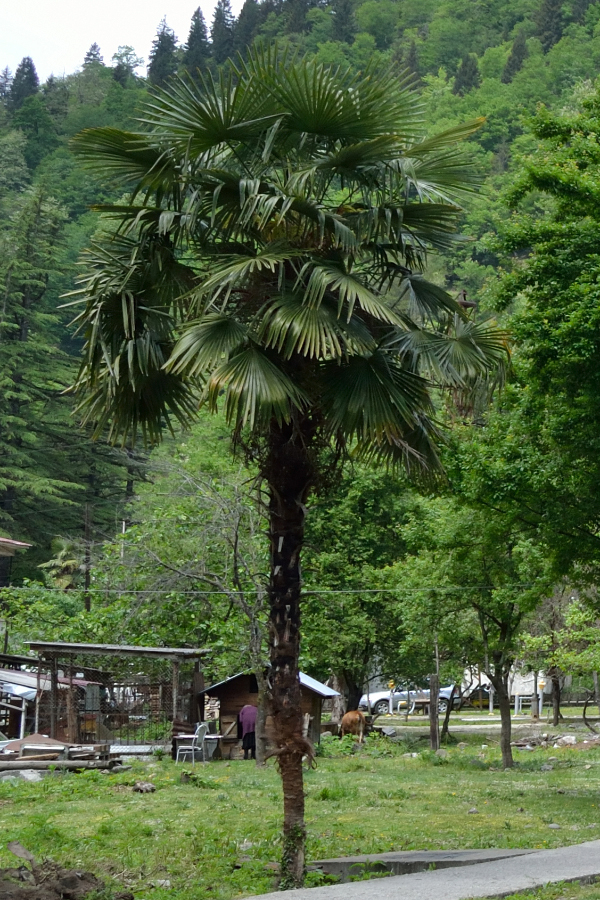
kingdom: Plantae
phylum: Tracheophyta
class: Liliopsida
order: Arecales
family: Arecaceae
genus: Trachycarpus
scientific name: Trachycarpus fortunei
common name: Chusan palm
